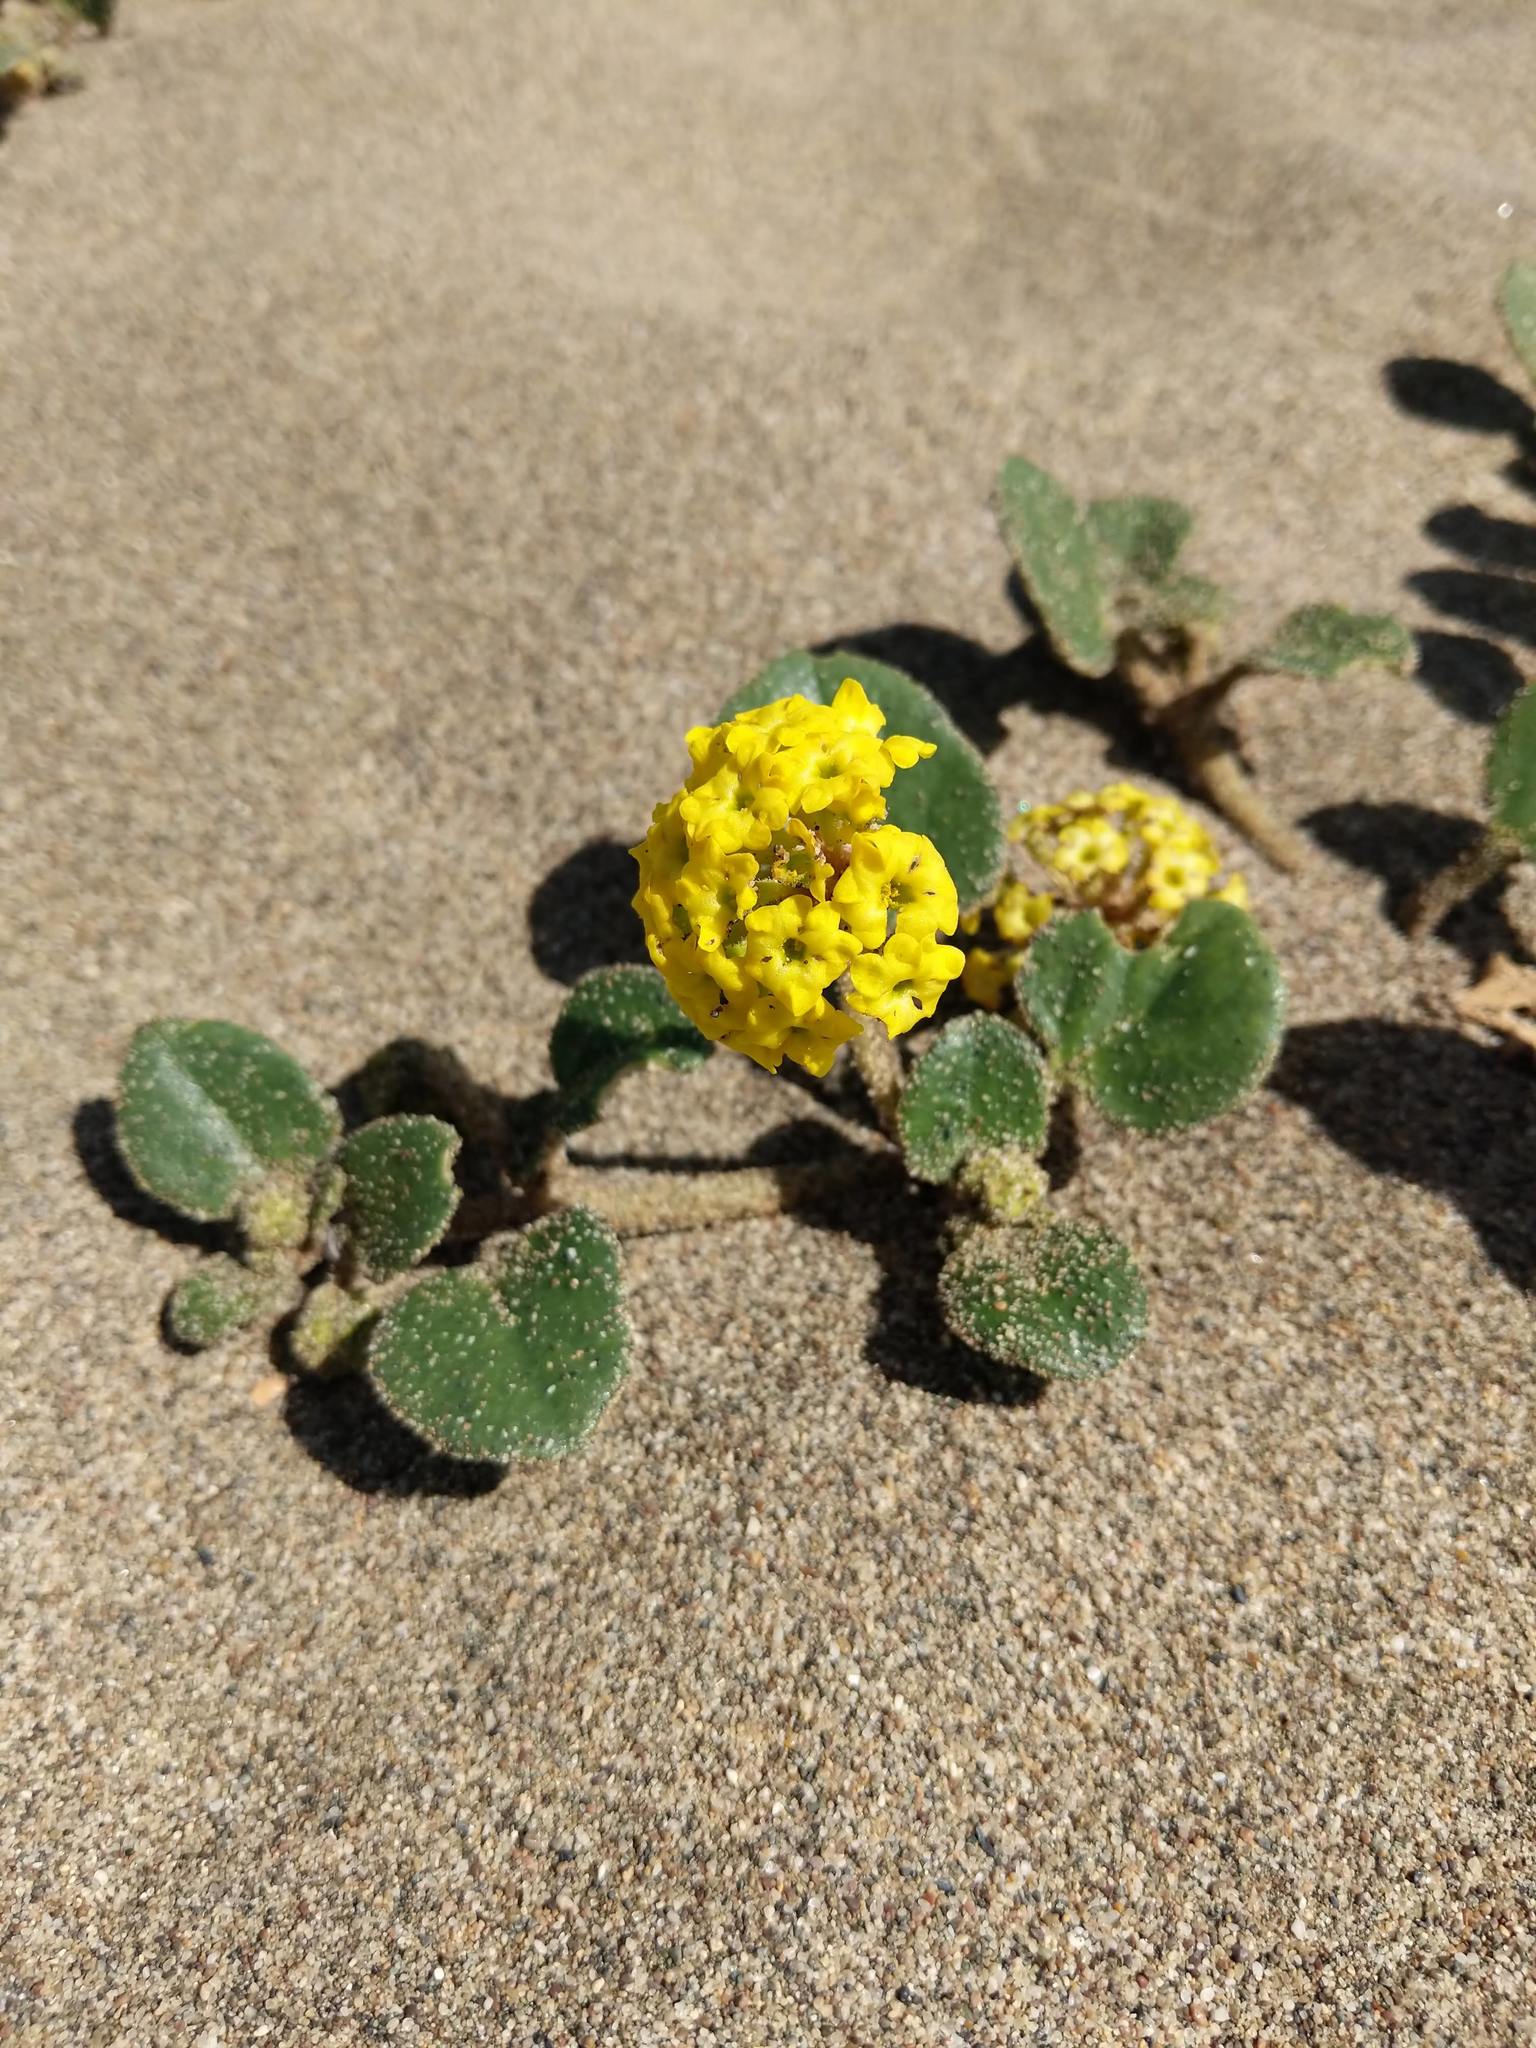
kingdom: Plantae
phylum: Tracheophyta
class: Magnoliopsida
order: Caryophyllales
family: Nyctaginaceae
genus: Abronia
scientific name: Abronia latifolia
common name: Yellow sand-verbena
